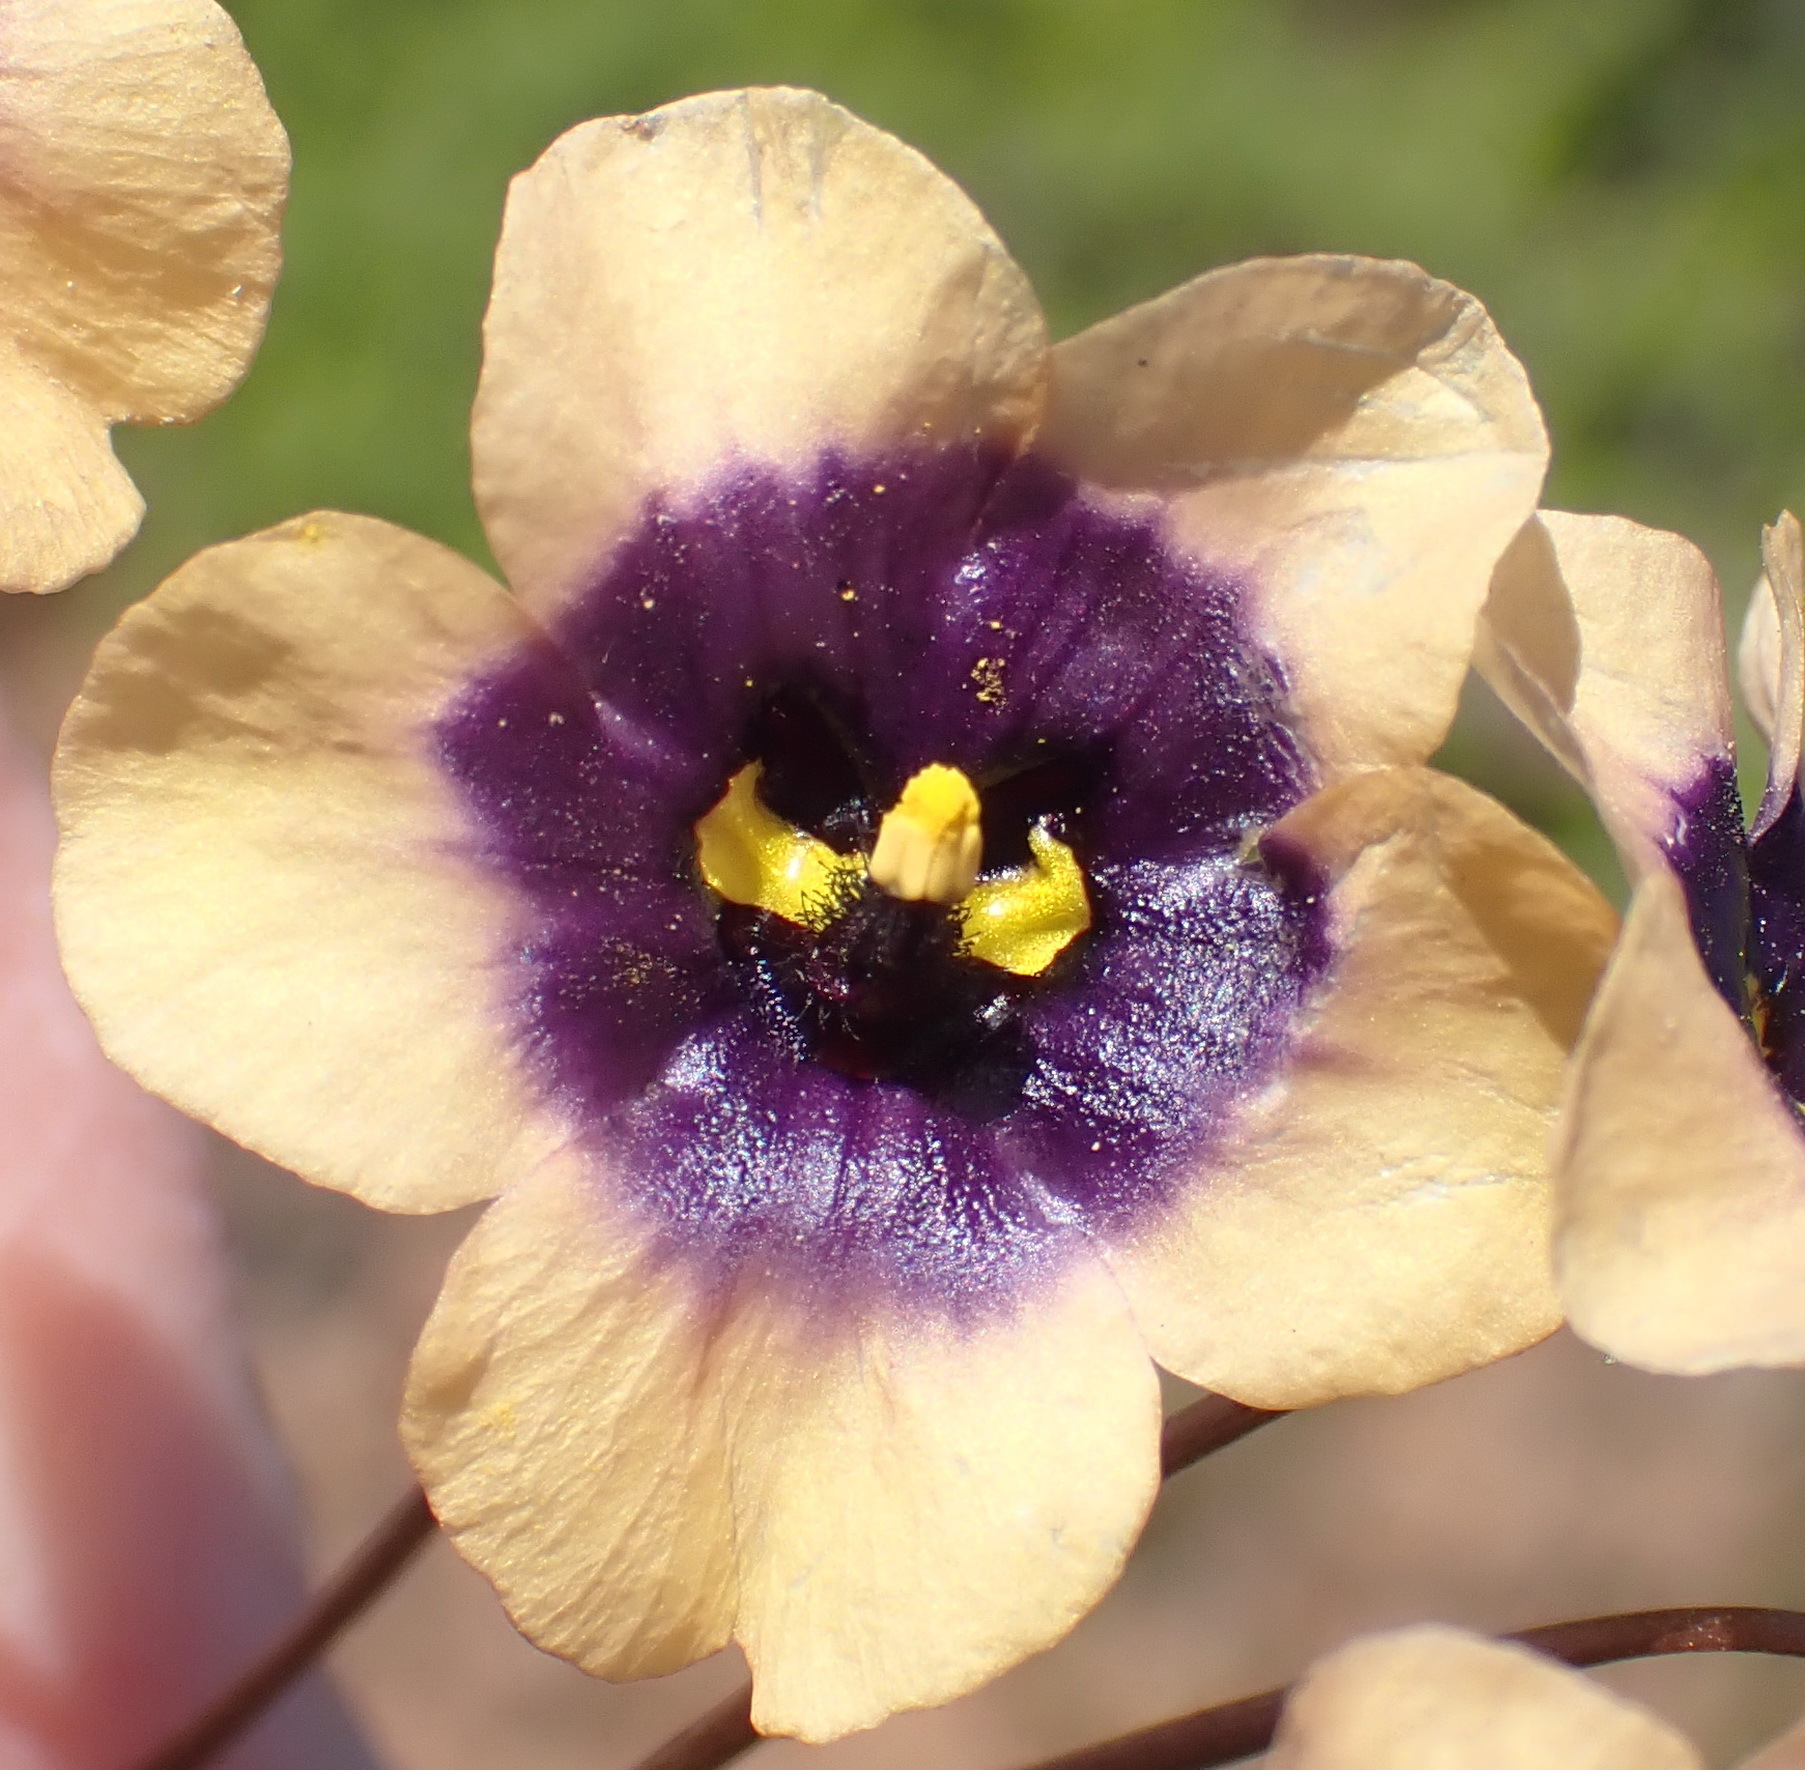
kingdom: Plantae
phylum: Tracheophyta
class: Magnoliopsida
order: Lamiales
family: Scrophulariaceae
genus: Diascia
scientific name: Diascia decipiens
